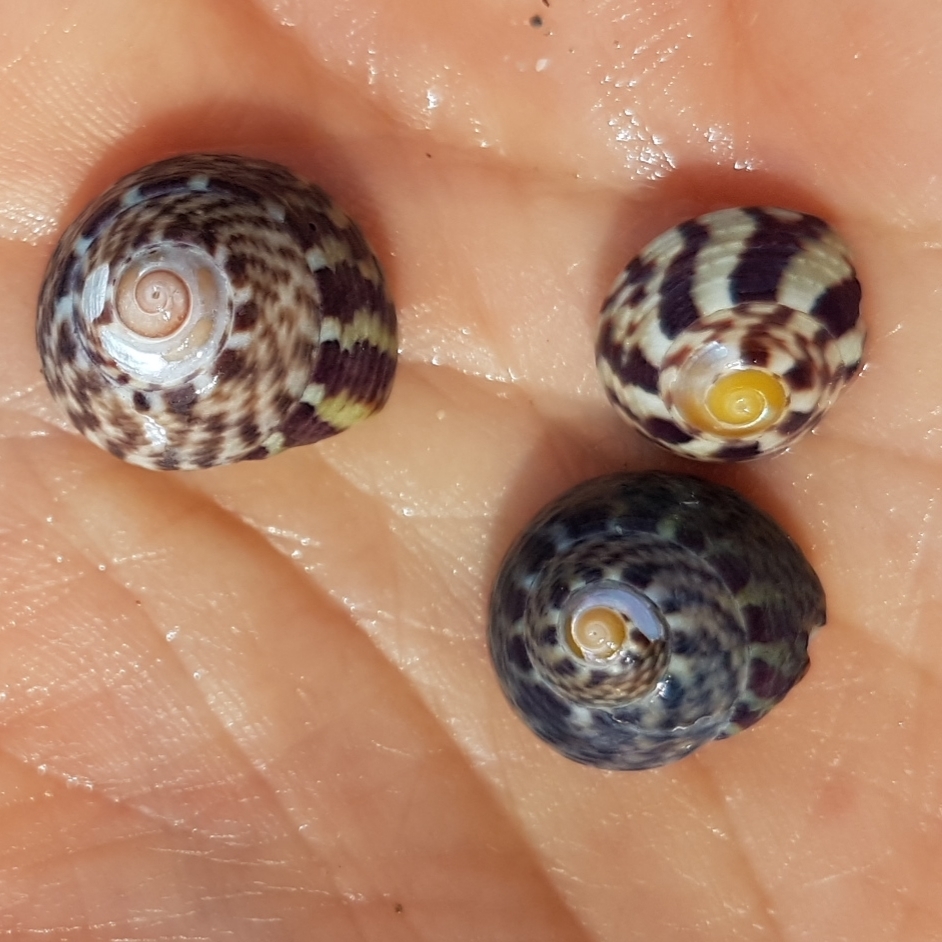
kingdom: Animalia
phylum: Mollusca
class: Gastropoda
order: Trochida
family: Trochidae
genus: Steromphala
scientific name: Steromphala pennanti
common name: Pennant's top shell
